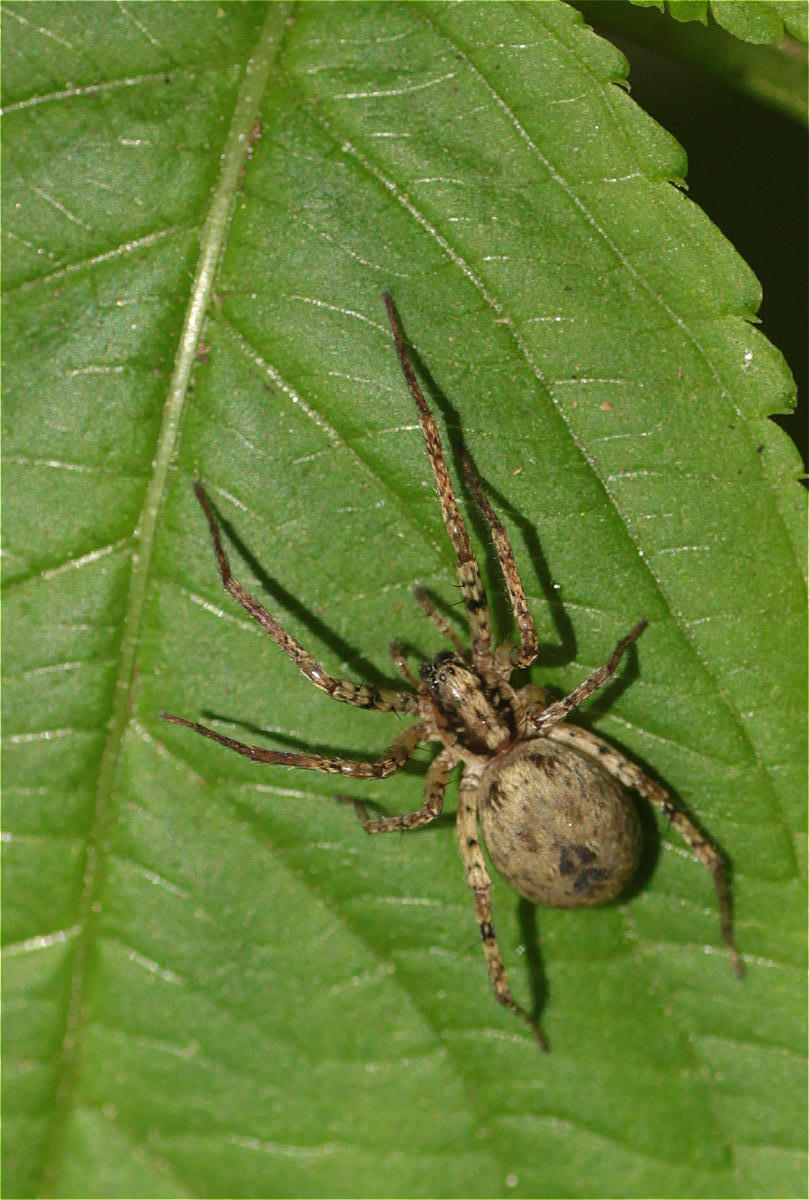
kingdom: Animalia
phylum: Arthropoda
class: Arachnida
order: Araneae
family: Anyphaenidae
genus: Anyphaena
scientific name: Anyphaena accentuata
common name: Buzzing spider
